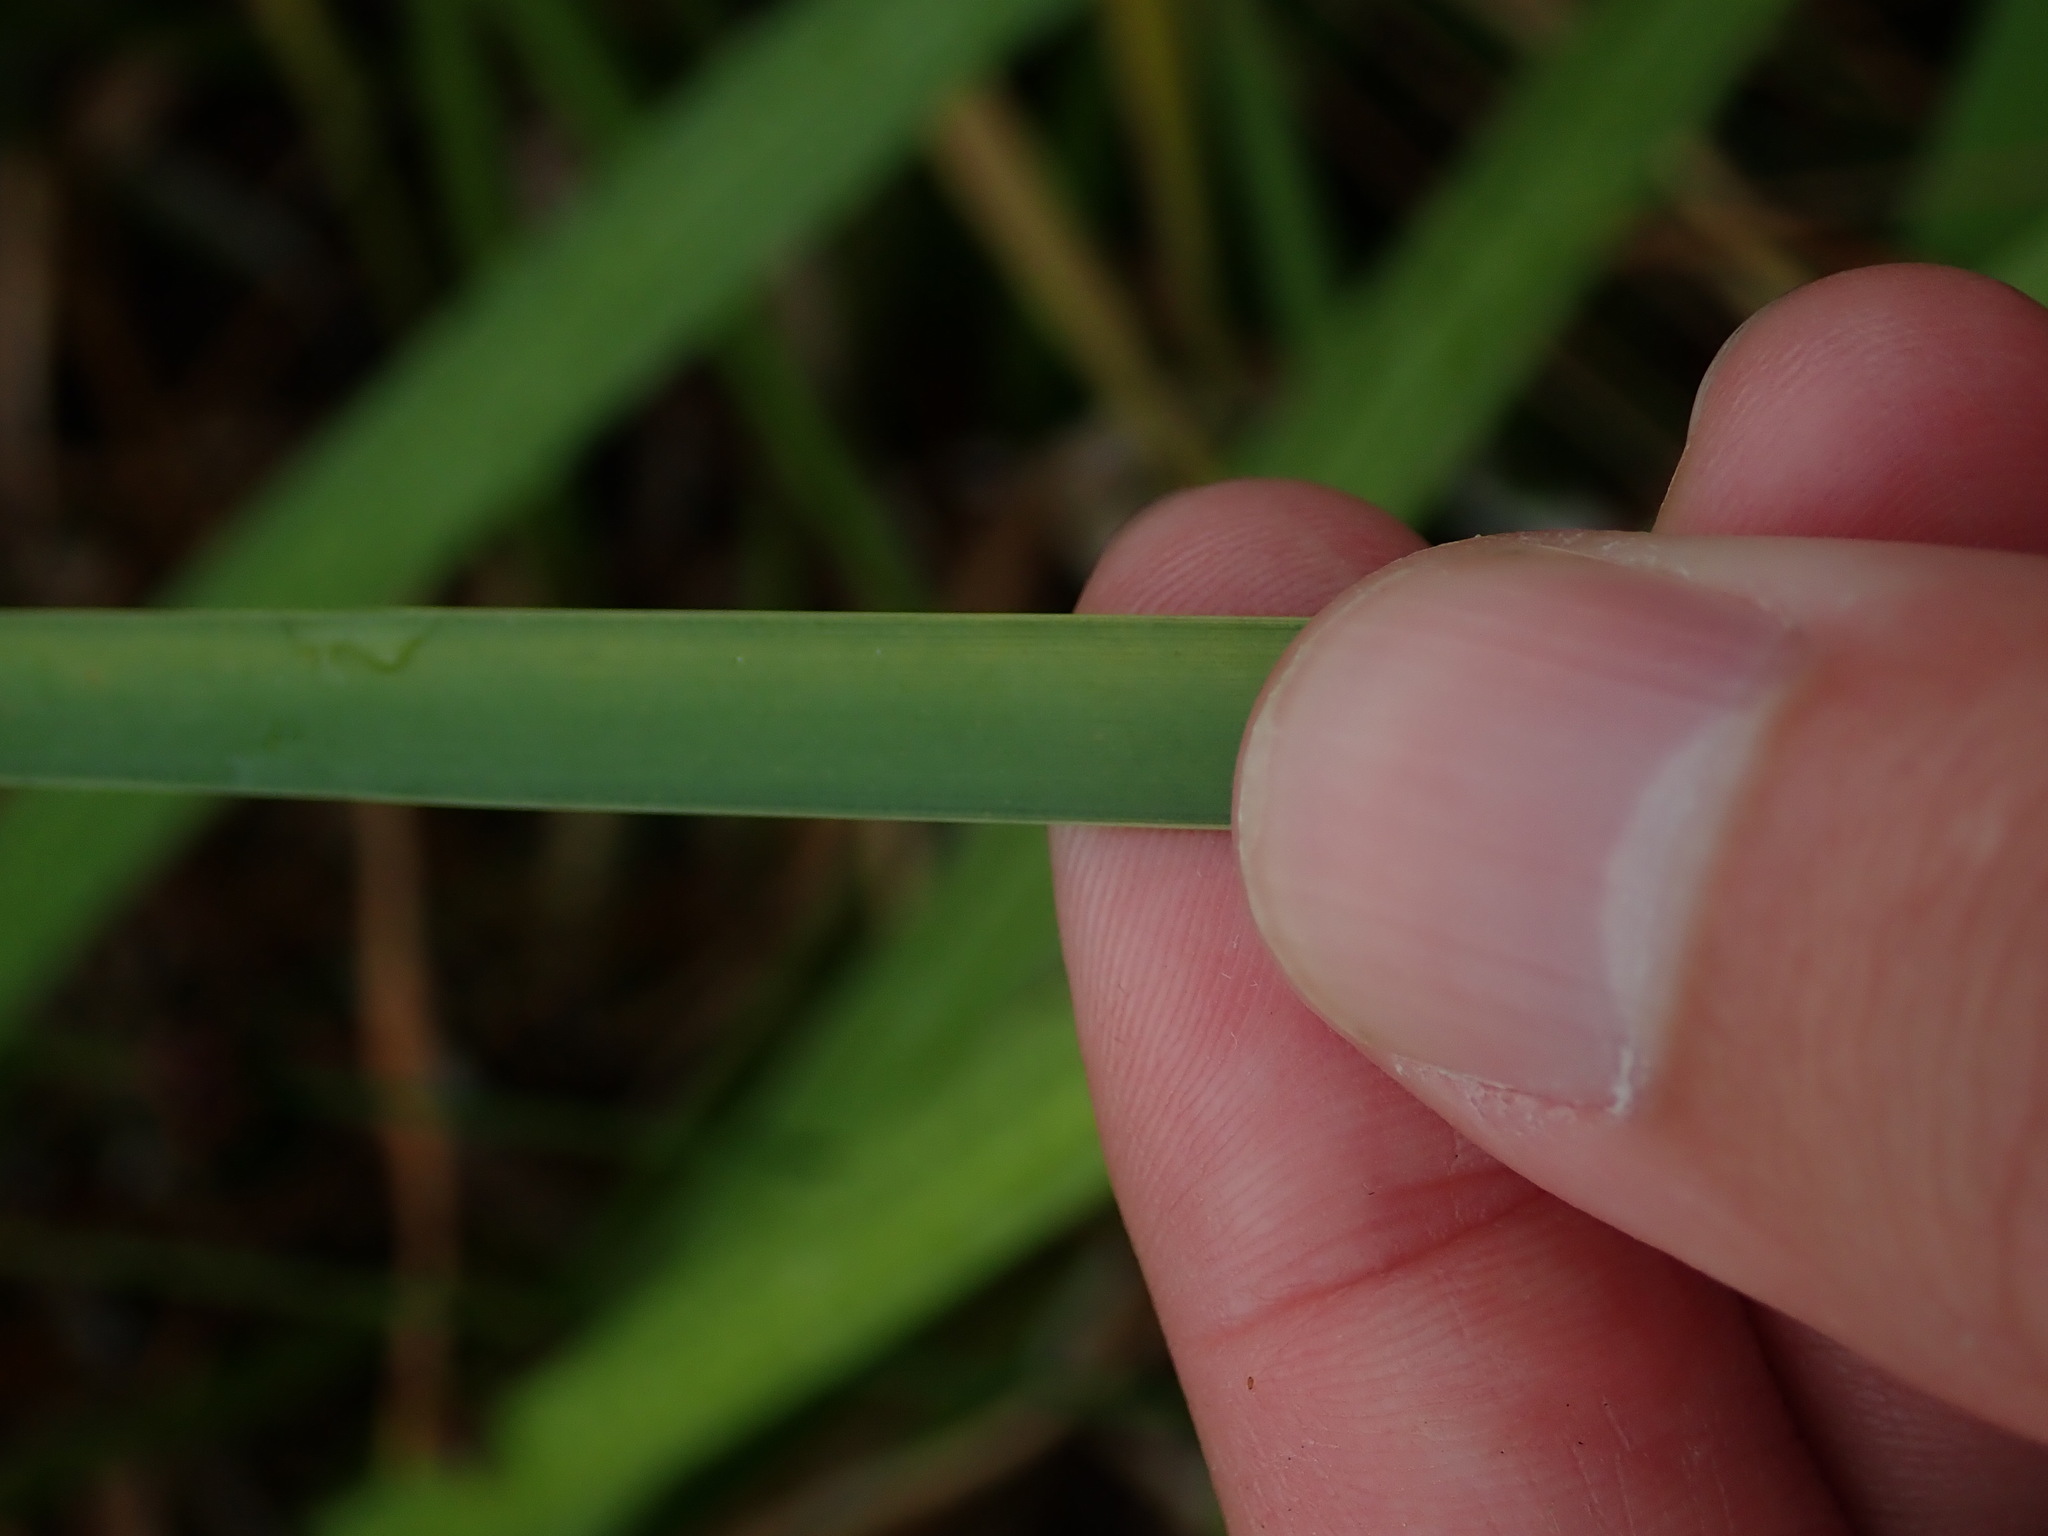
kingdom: Plantae
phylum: Tracheophyta
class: Liliopsida
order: Poales
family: Typhaceae
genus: Typha
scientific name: Typha angustifolia
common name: Lesser bulrush
